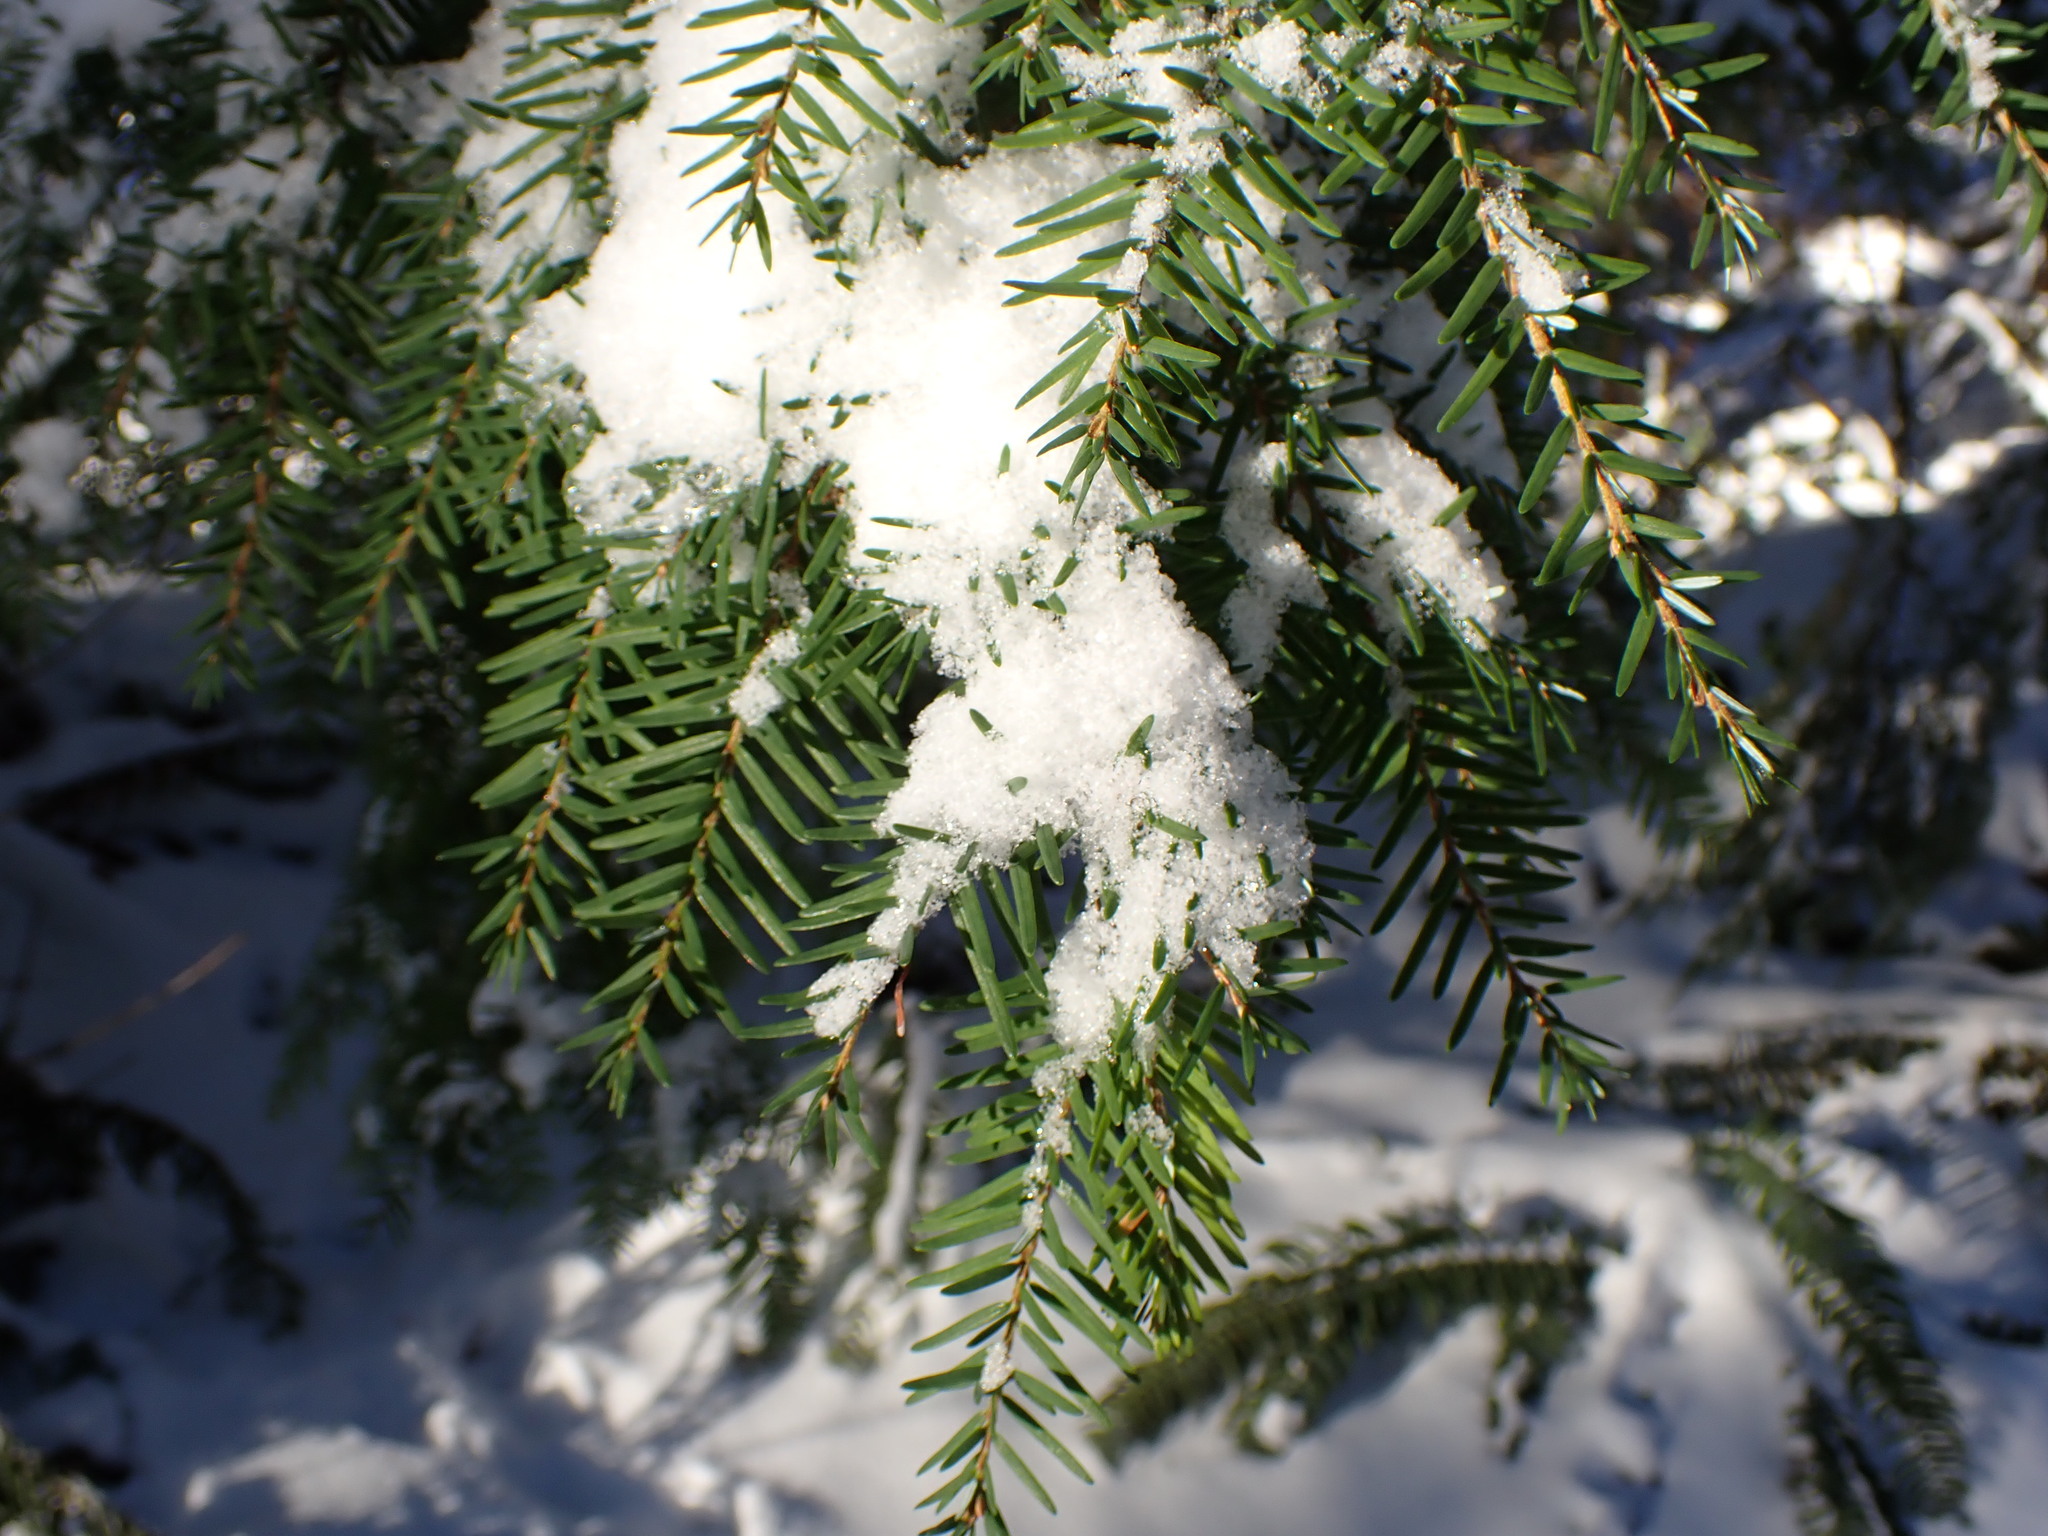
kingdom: Plantae
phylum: Tracheophyta
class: Pinopsida
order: Pinales
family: Pinaceae
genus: Tsuga
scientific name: Tsuga heterophylla
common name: Western hemlock
